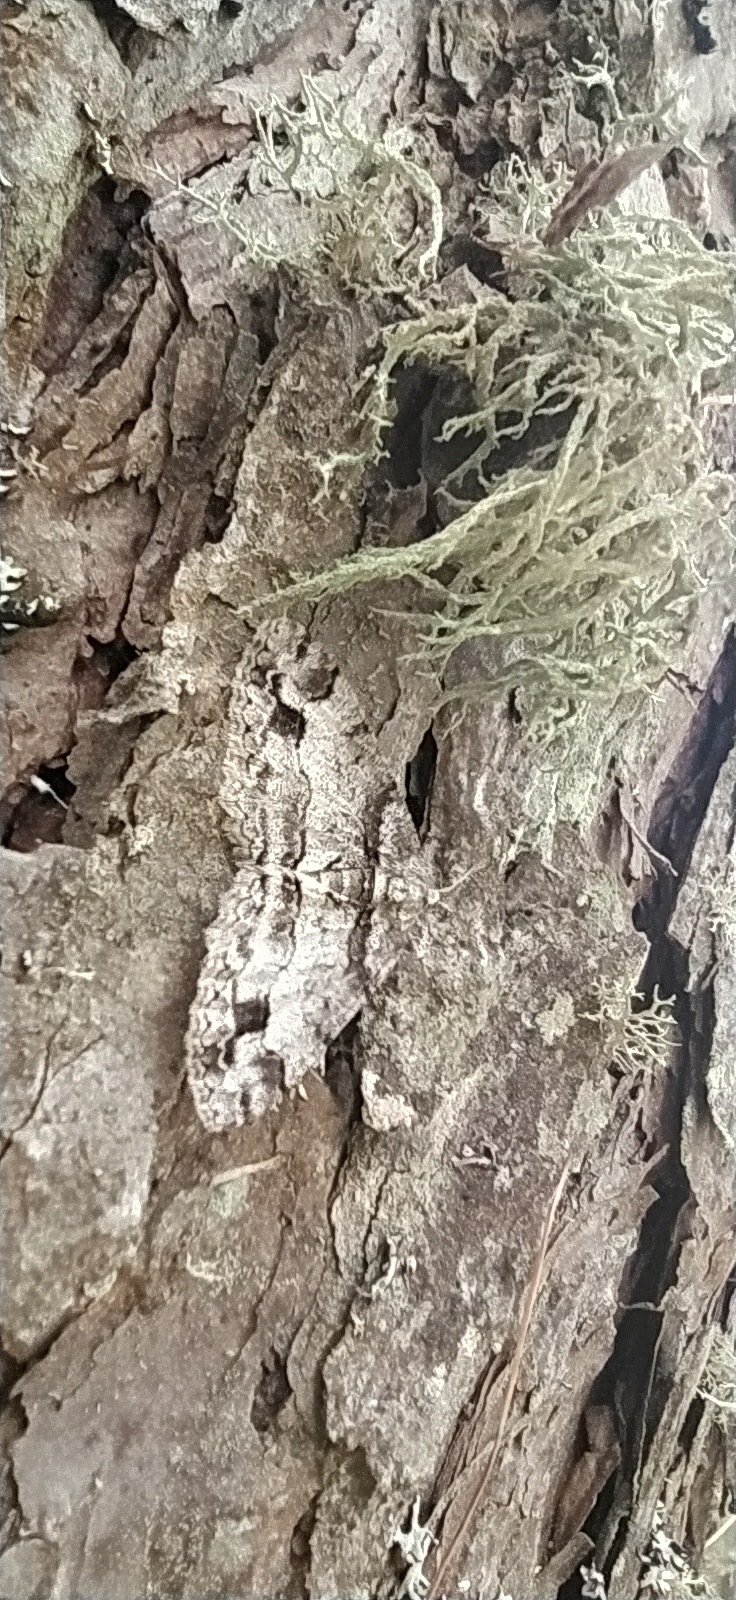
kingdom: Animalia
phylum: Arthropoda
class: Insecta
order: Lepidoptera
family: Geometridae
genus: Paradarisa
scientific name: Paradarisa consonaria
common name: Square spot
